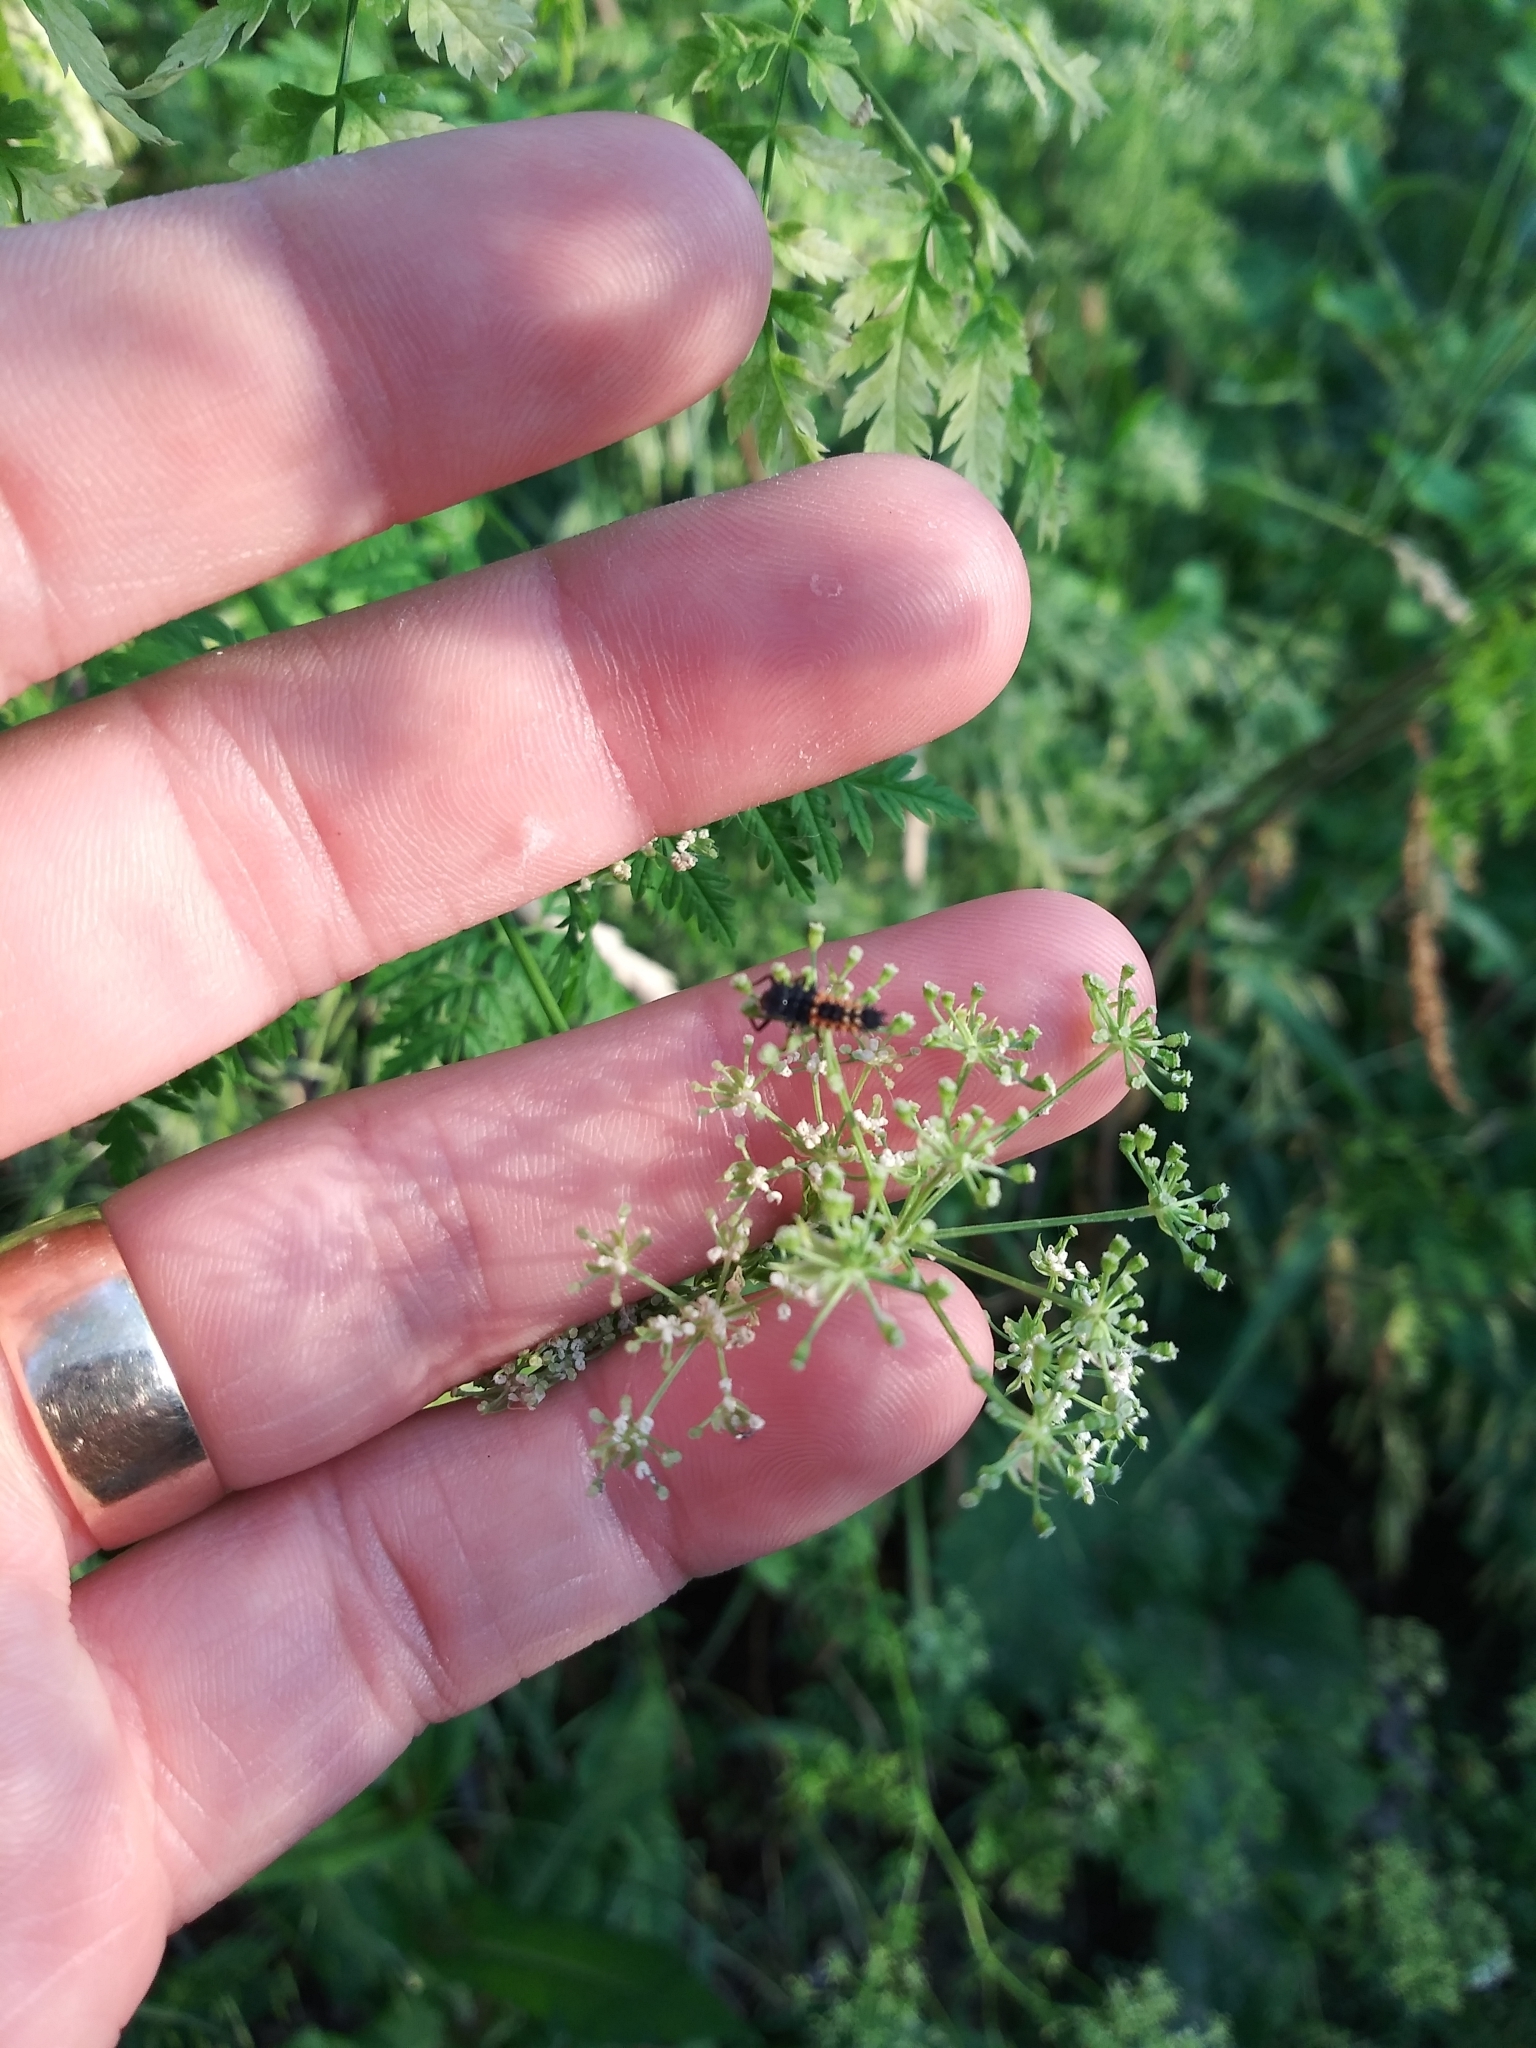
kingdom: Animalia
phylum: Arthropoda
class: Insecta
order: Coleoptera
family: Coccinellidae
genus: Harmonia
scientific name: Harmonia axyridis
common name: Harlequin ladybird
